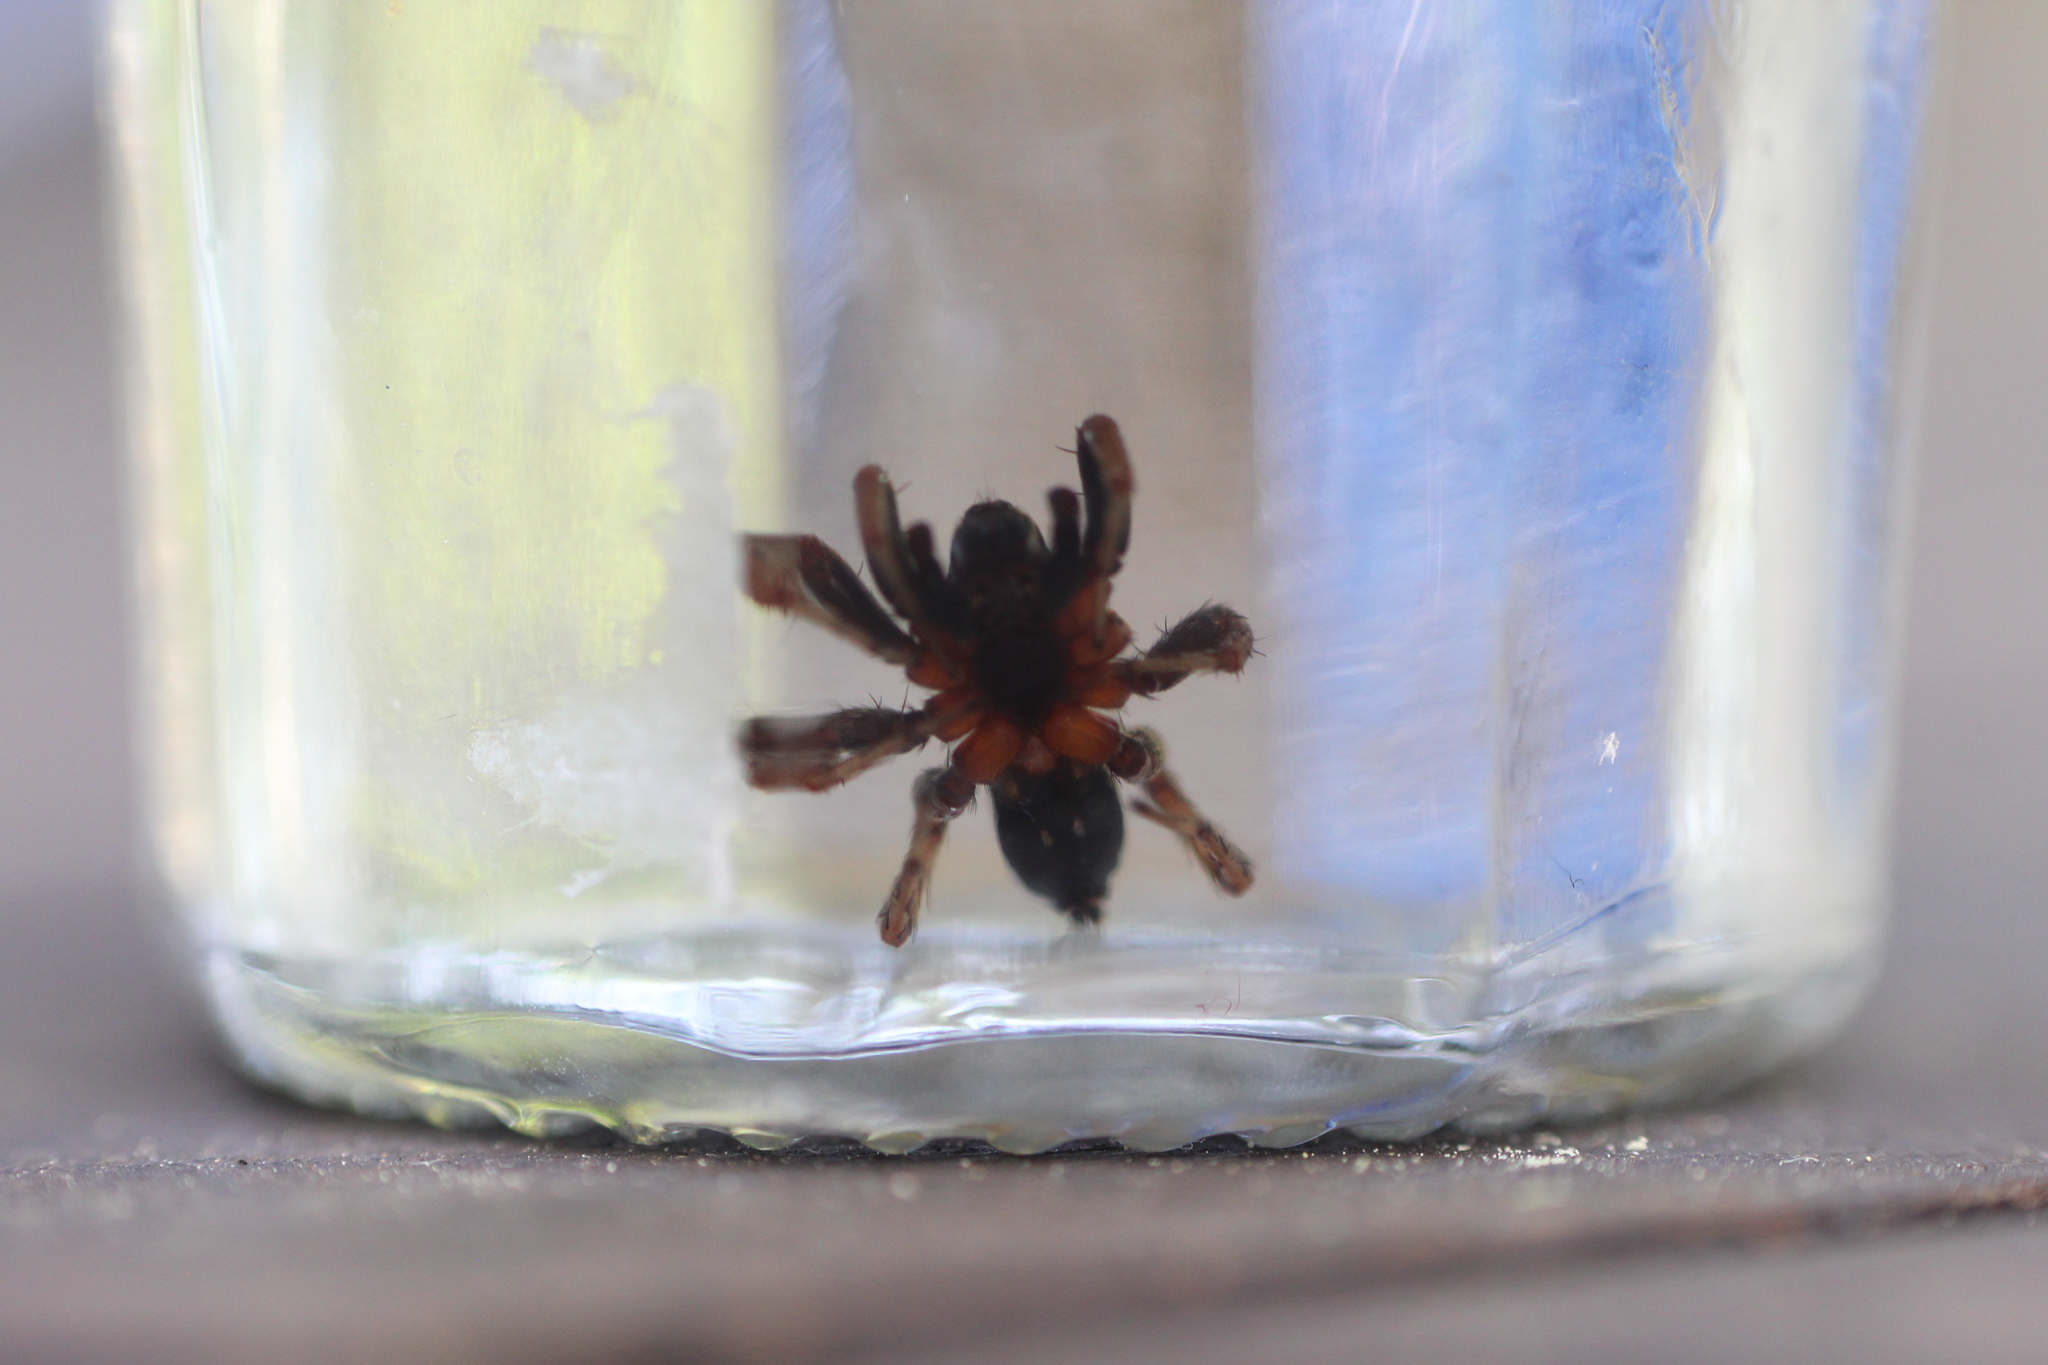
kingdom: Animalia
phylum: Arthropoda
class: Arachnida
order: Araneae
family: Lycosidae
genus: Alopecosa
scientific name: Alopecosa albofasciata
